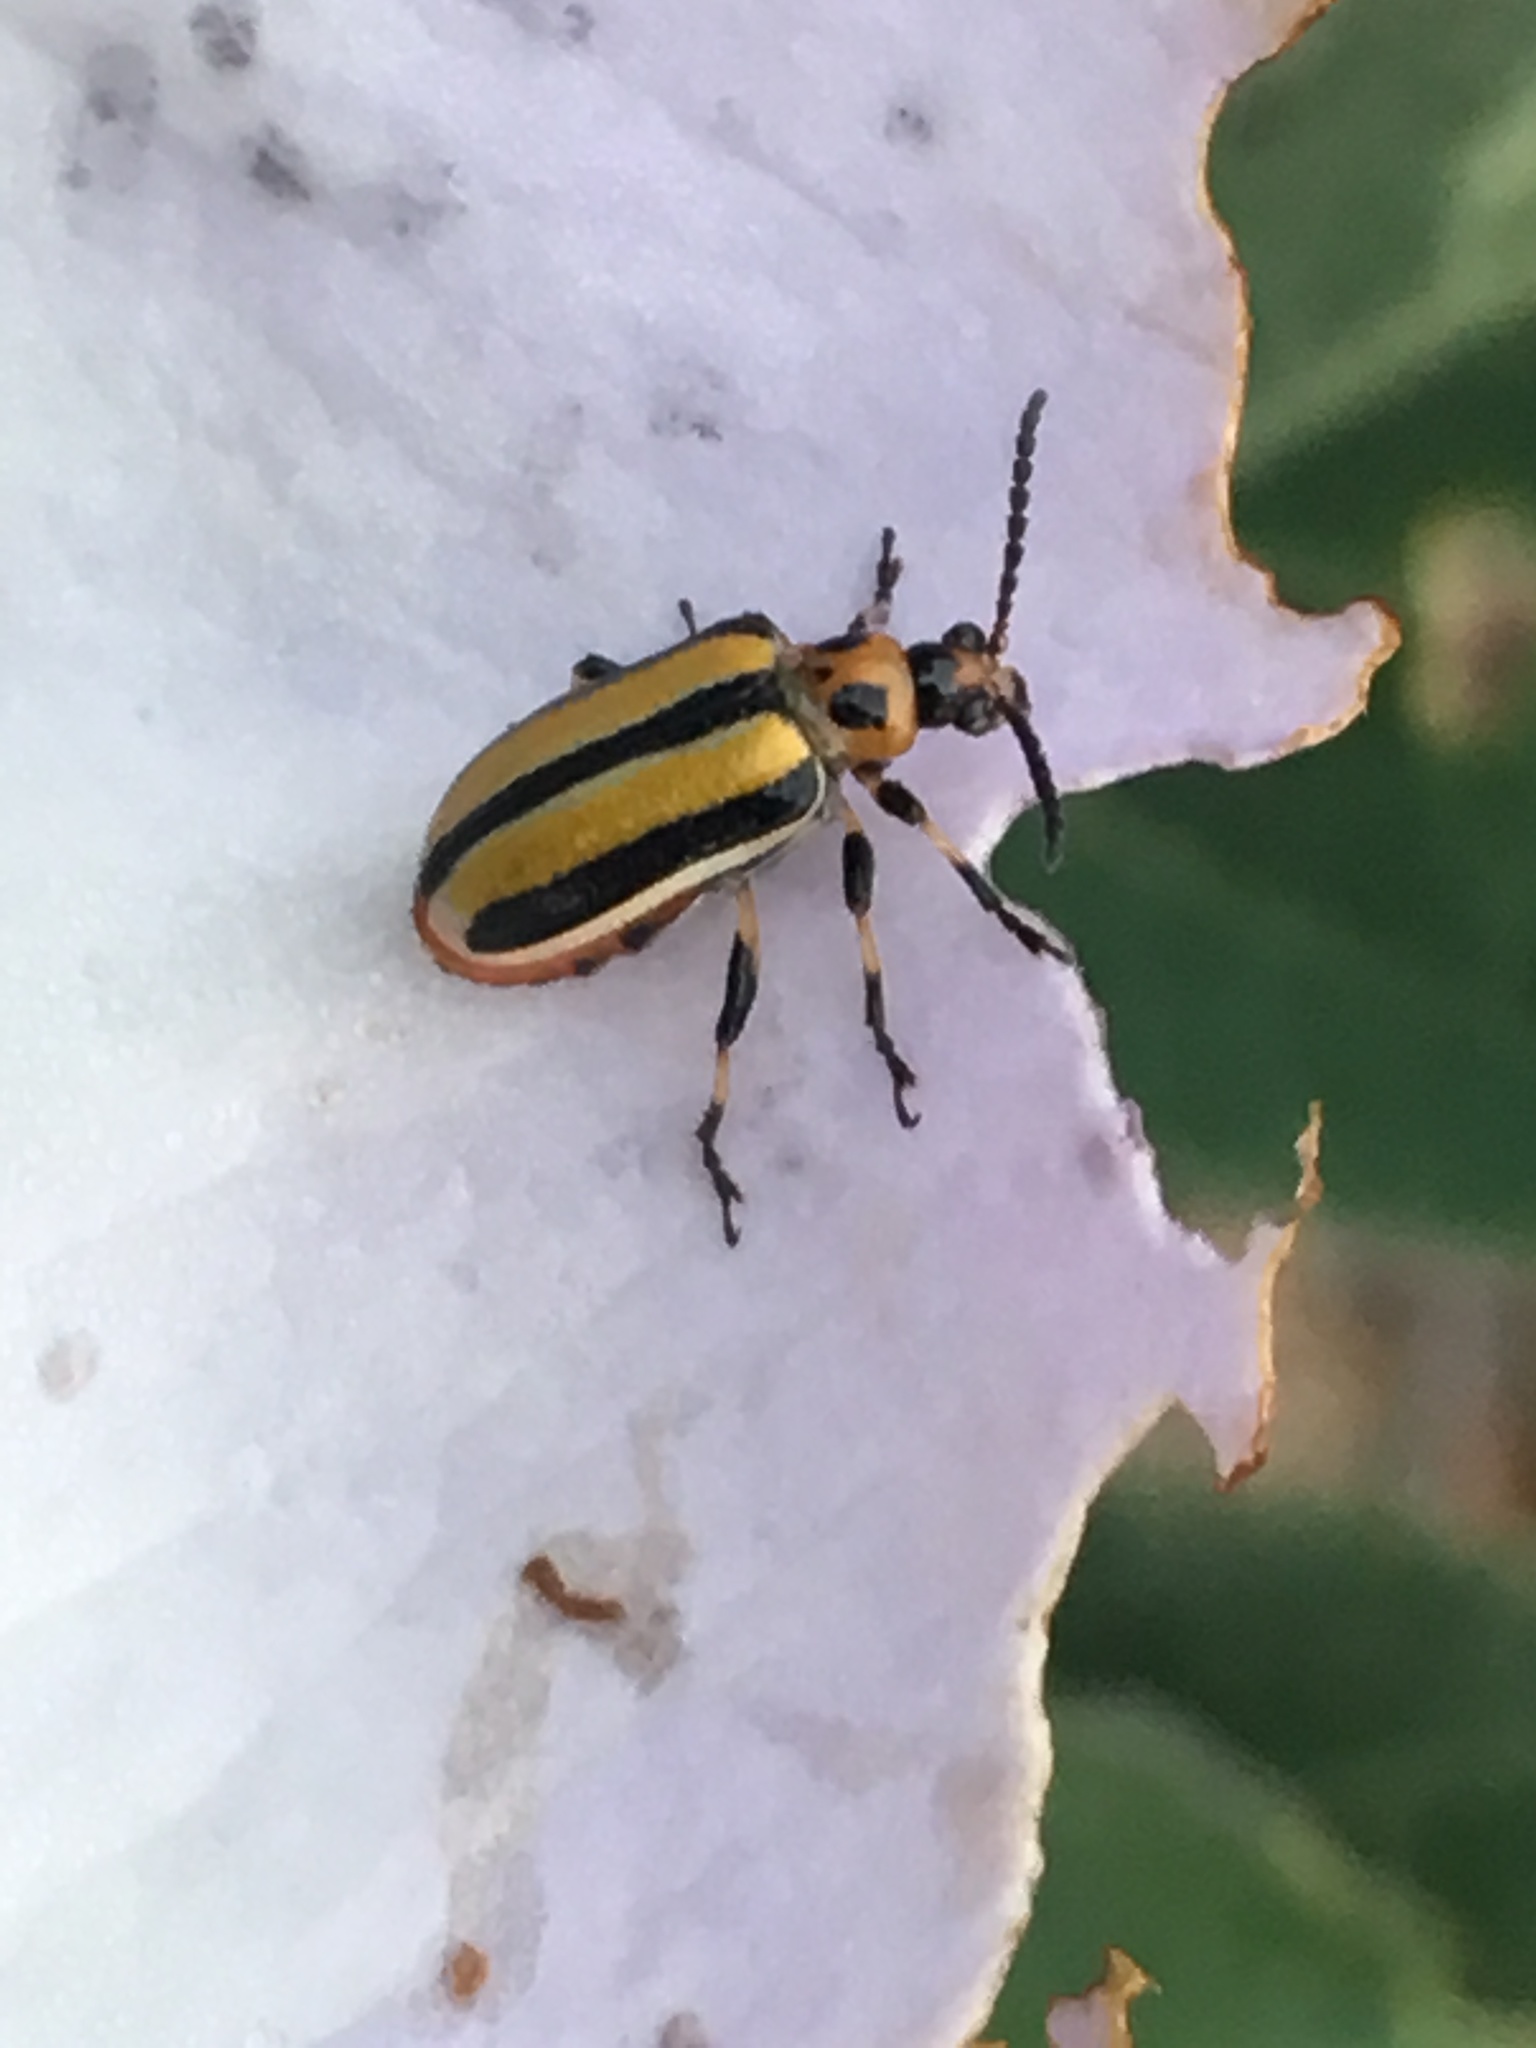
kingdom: Animalia
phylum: Arthropoda
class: Insecta
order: Coleoptera
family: Chrysomelidae
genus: Lema
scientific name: Lema daturaphila
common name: Leaf beetle
